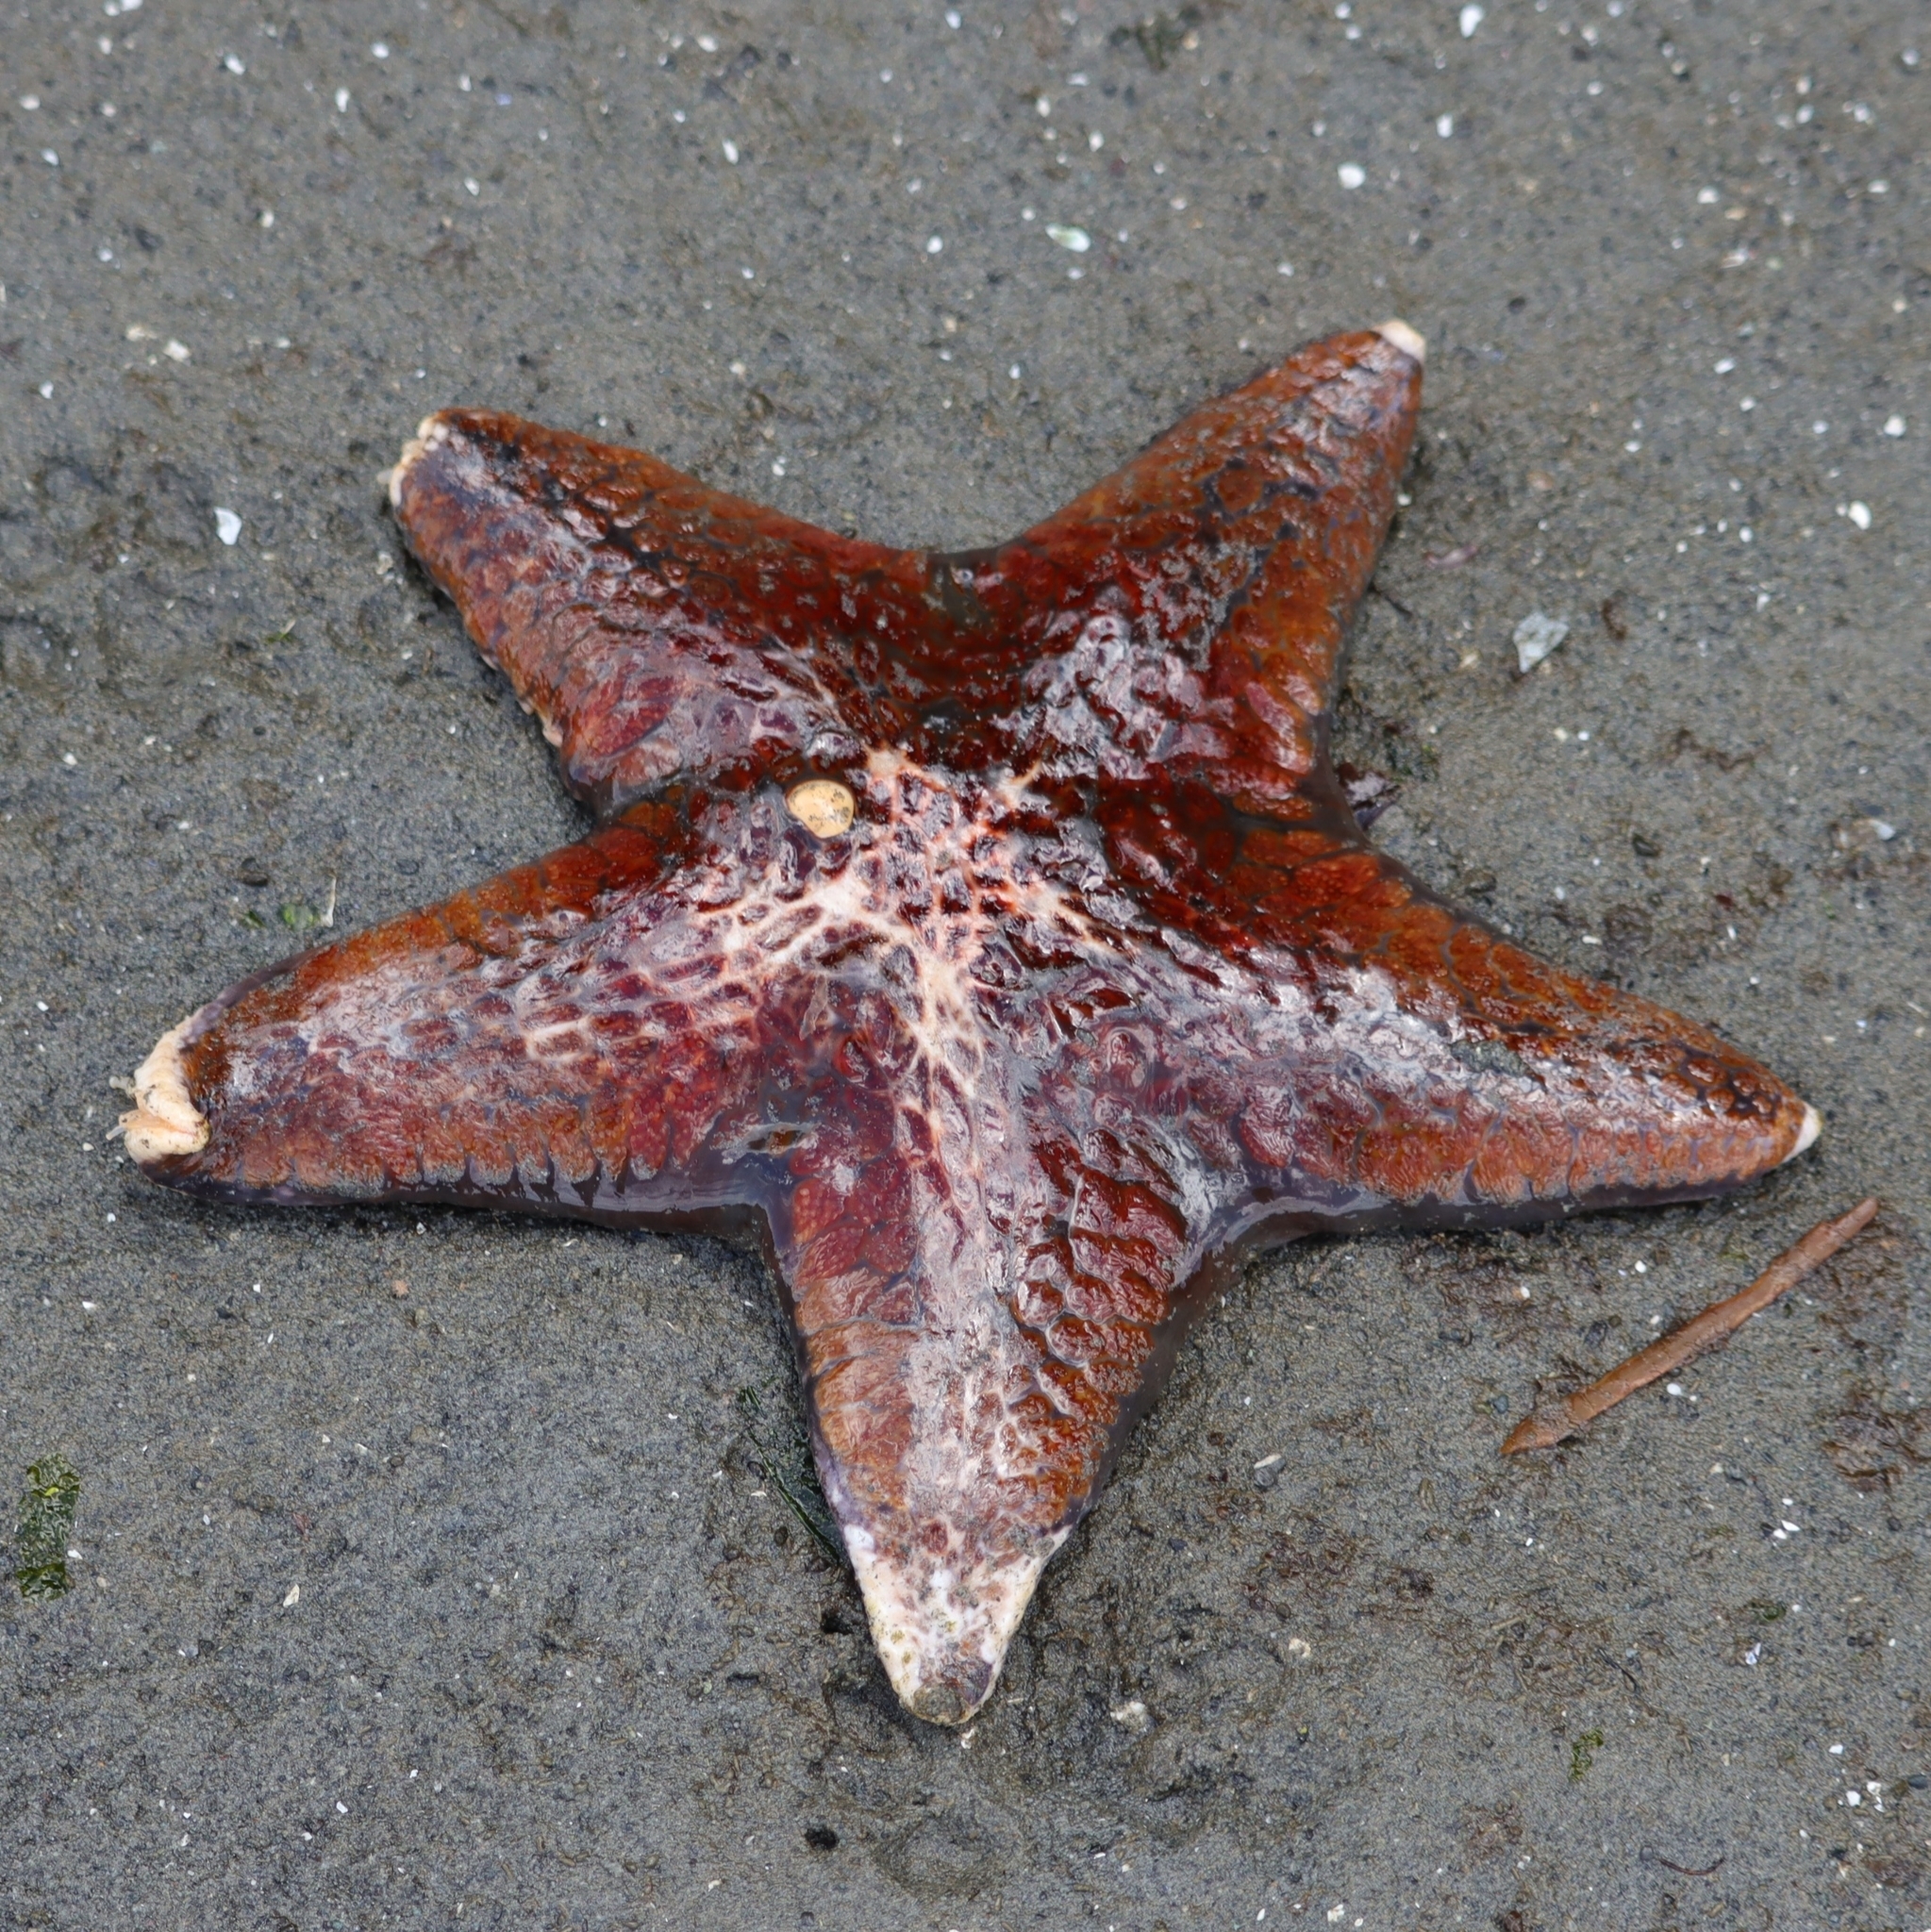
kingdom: Animalia
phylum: Echinodermata
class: Asteroidea
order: Valvatida
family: Asteropseidae
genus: Dermasterias
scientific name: Dermasterias imbricata
